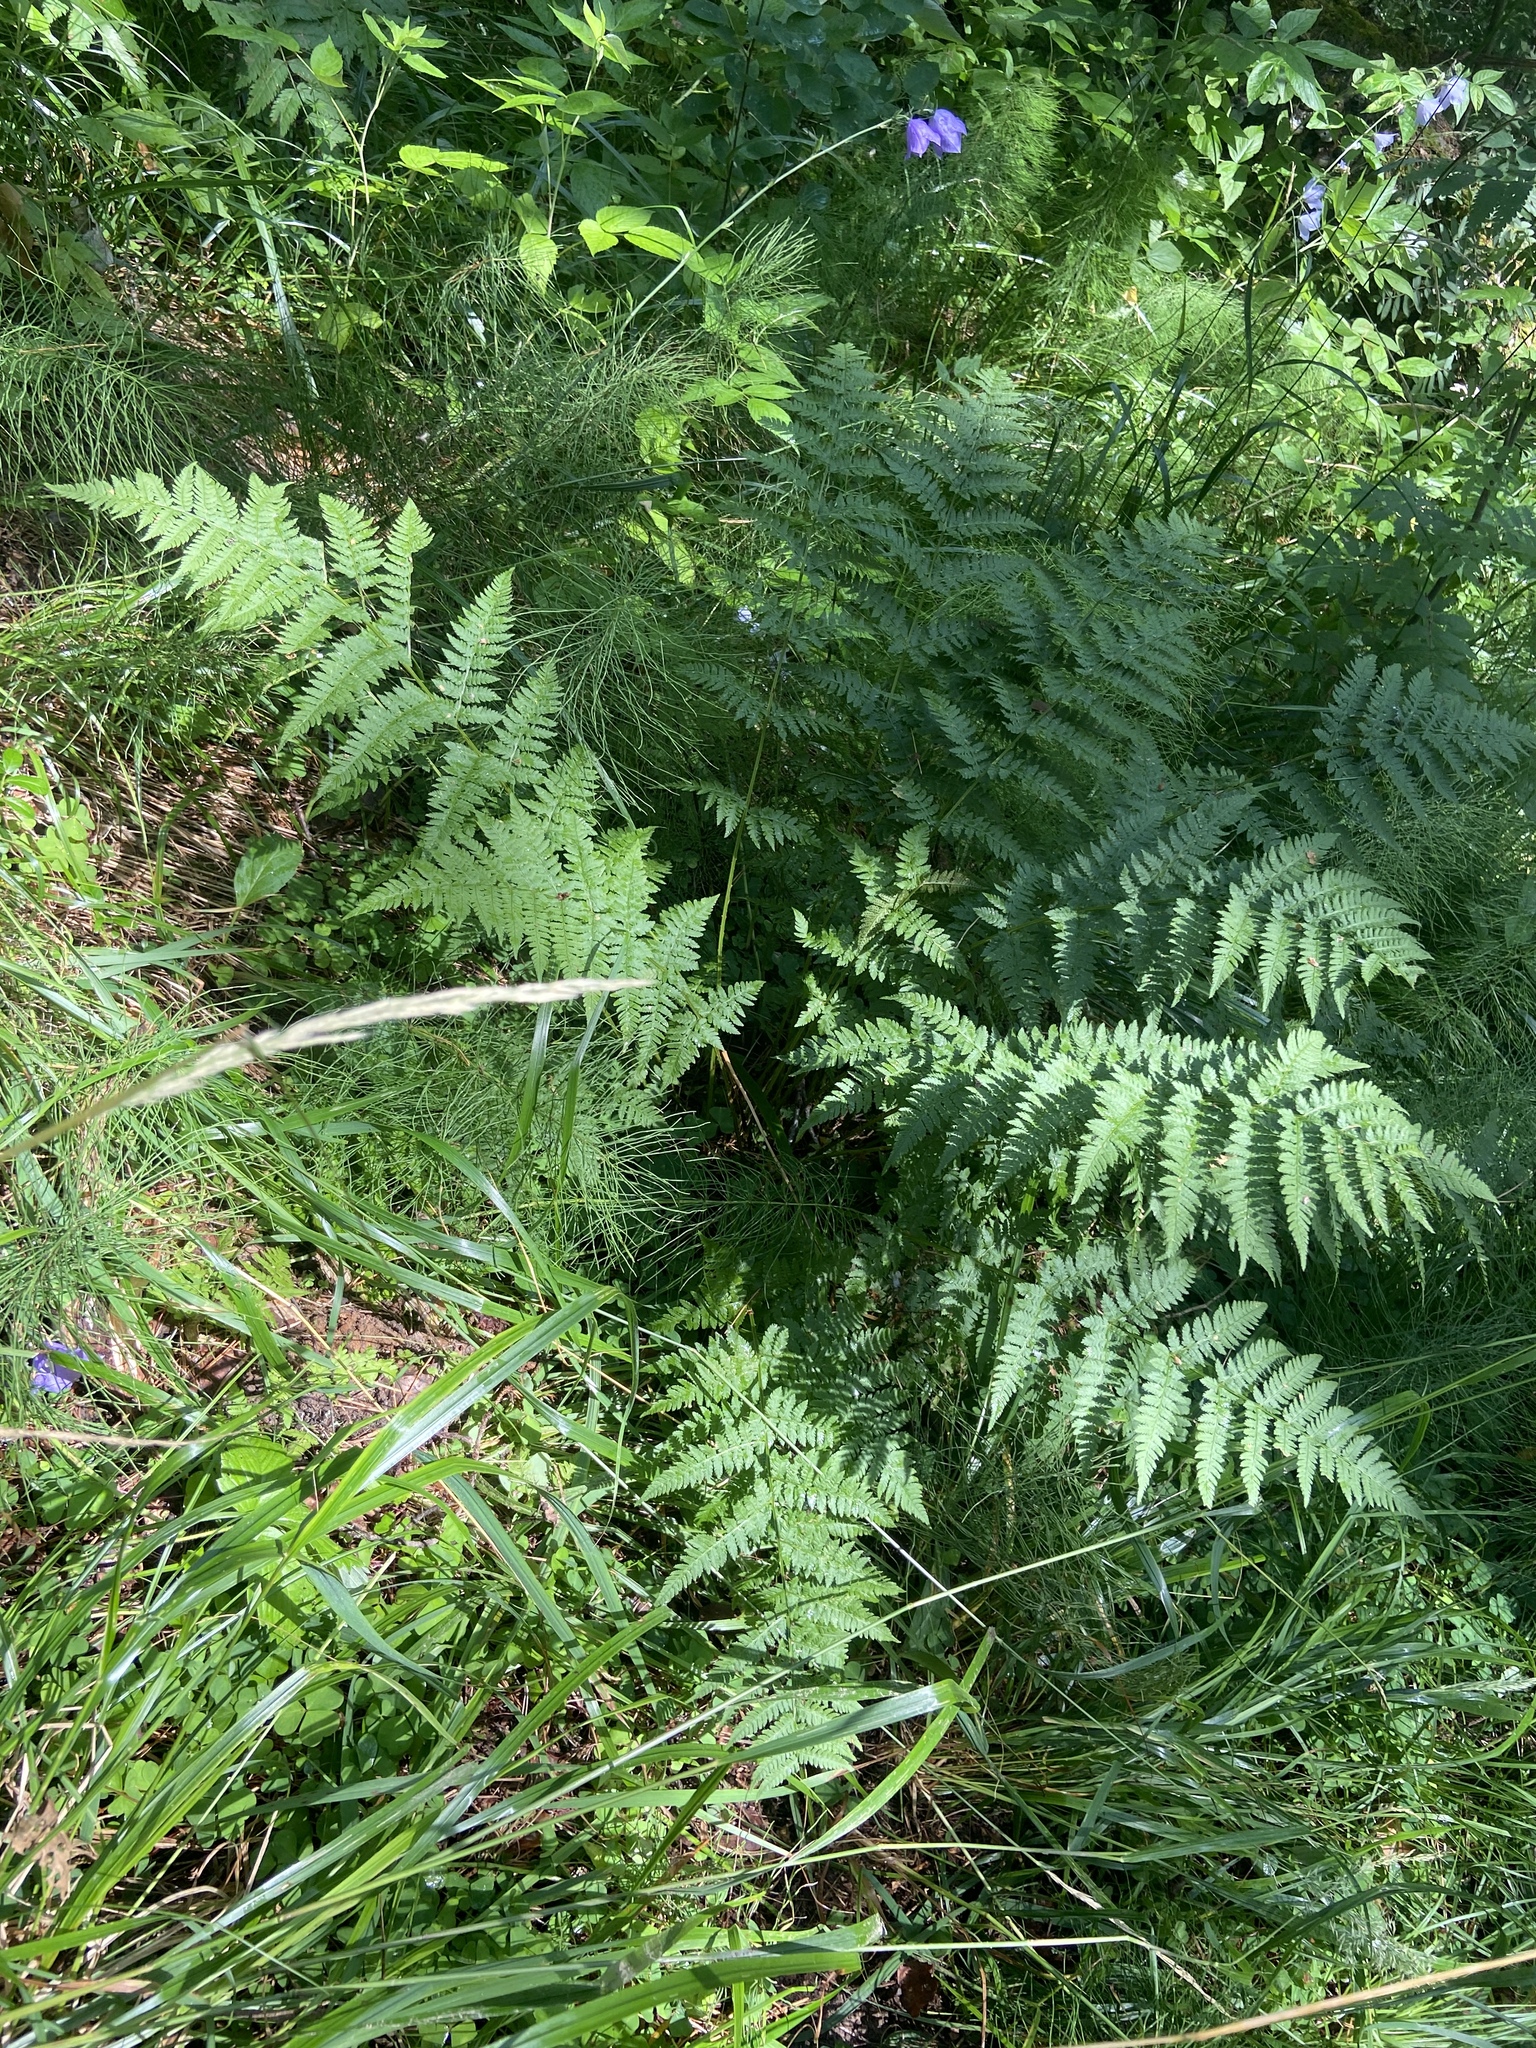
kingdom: Plantae
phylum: Tracheophyta
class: Polypodiopsida
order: Polypodiales
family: Dryopteridaceae
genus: Dryopteris
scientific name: Dryopteris carthusiana
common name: Narrow buckler-fern
